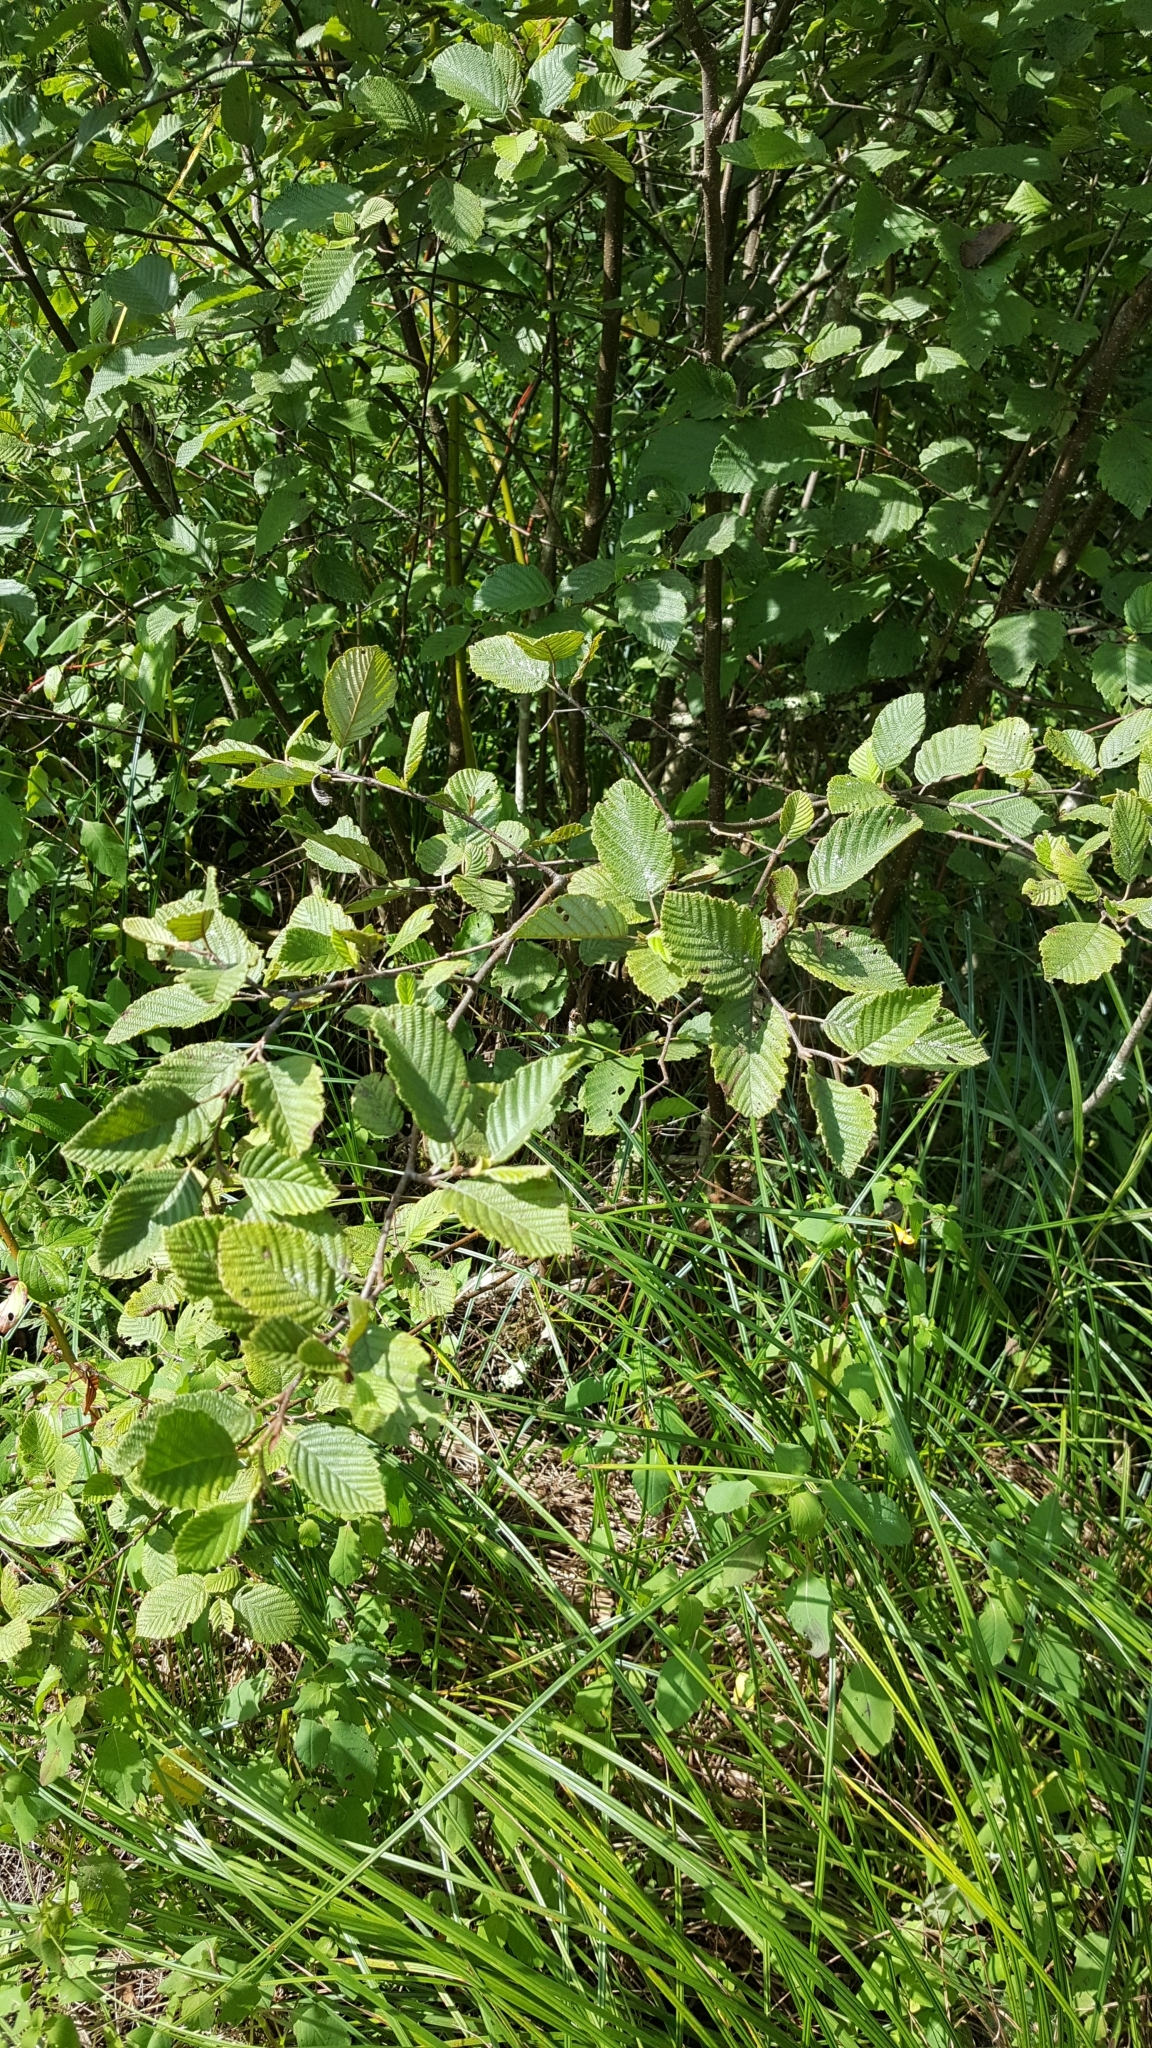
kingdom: Plantae
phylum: Tracheophyta
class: Magnoliopsida
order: Fagales
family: Betulaceae
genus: Alnus
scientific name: Alnus incana
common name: Grey alder
